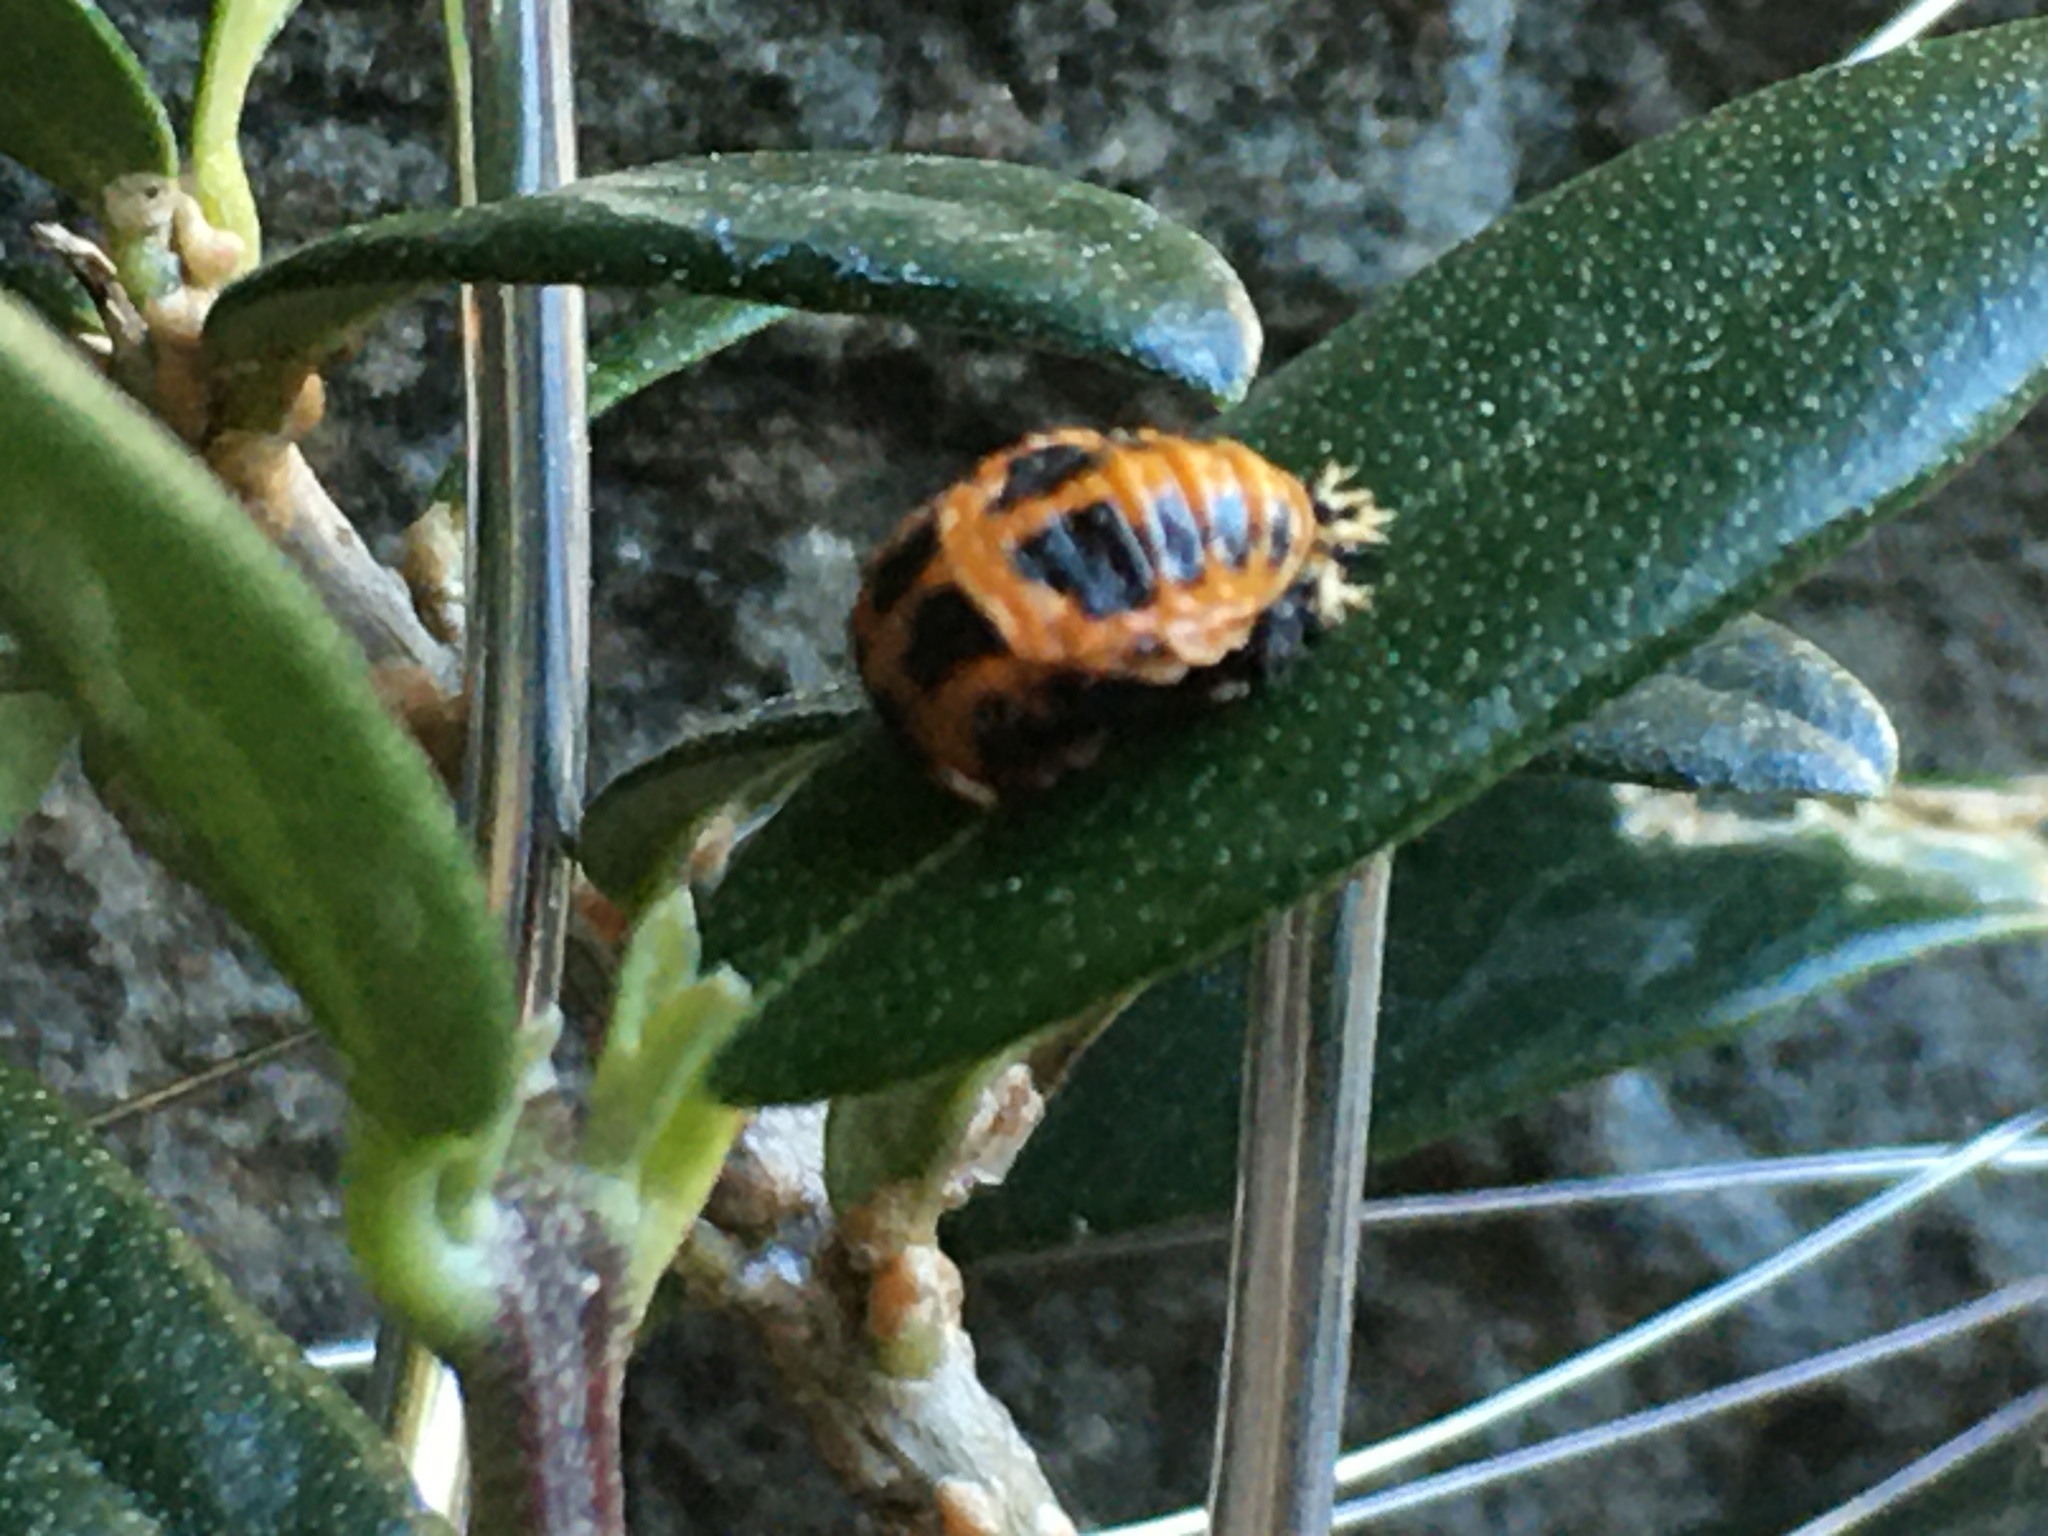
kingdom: Animalia
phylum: Arthropoda
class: Insecta
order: Coleoptera
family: Coccinellidae
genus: Harmonia
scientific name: Harmonia axyridis
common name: Harlequin ladybird
